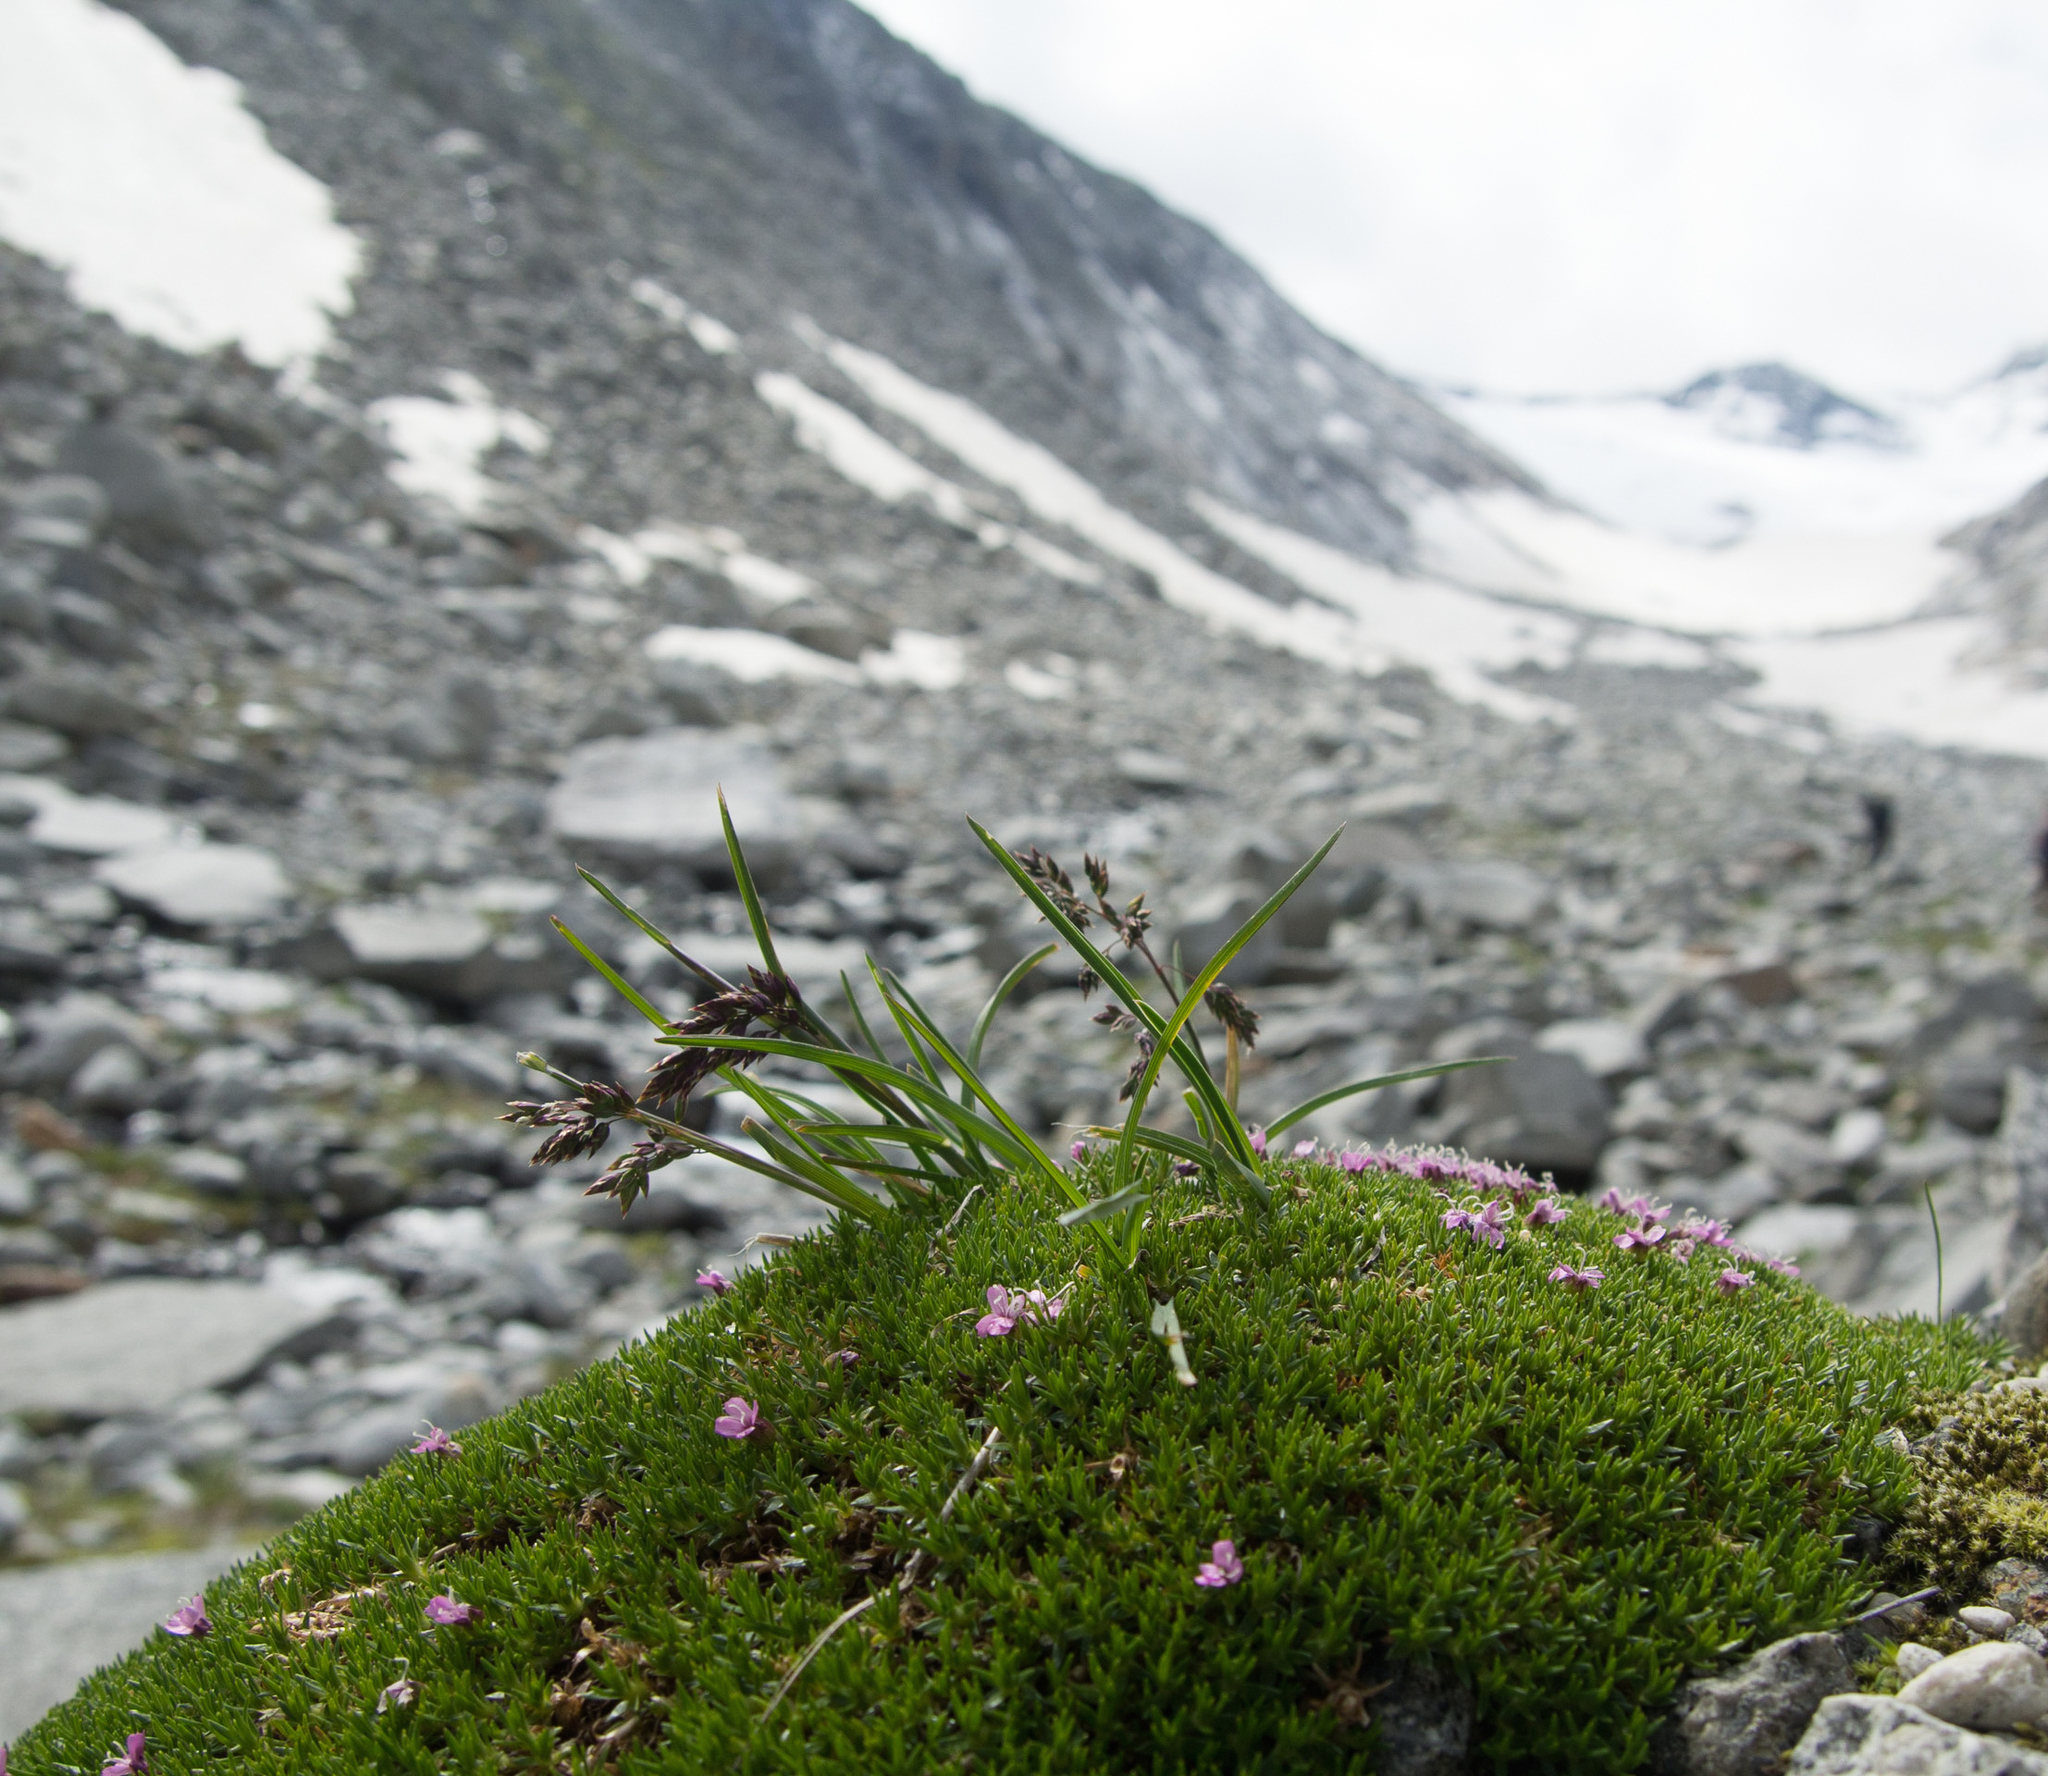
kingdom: Plantae
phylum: Tracheophyta
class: Magnoliopsida
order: Caryophyllales
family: Caryophyllaceae
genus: Silene
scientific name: Silene acaulis
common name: Moss campion
